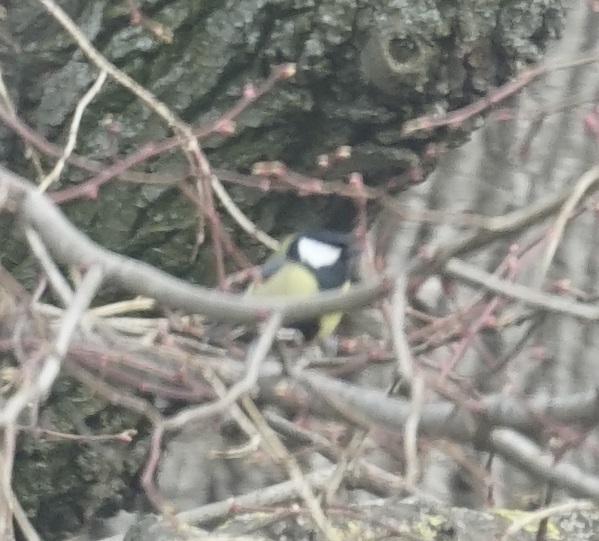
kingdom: Animalia
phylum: Chordata
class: Aves
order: Passeriformes
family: Paridae
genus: Parus
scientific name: Parus major
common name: Great tit
